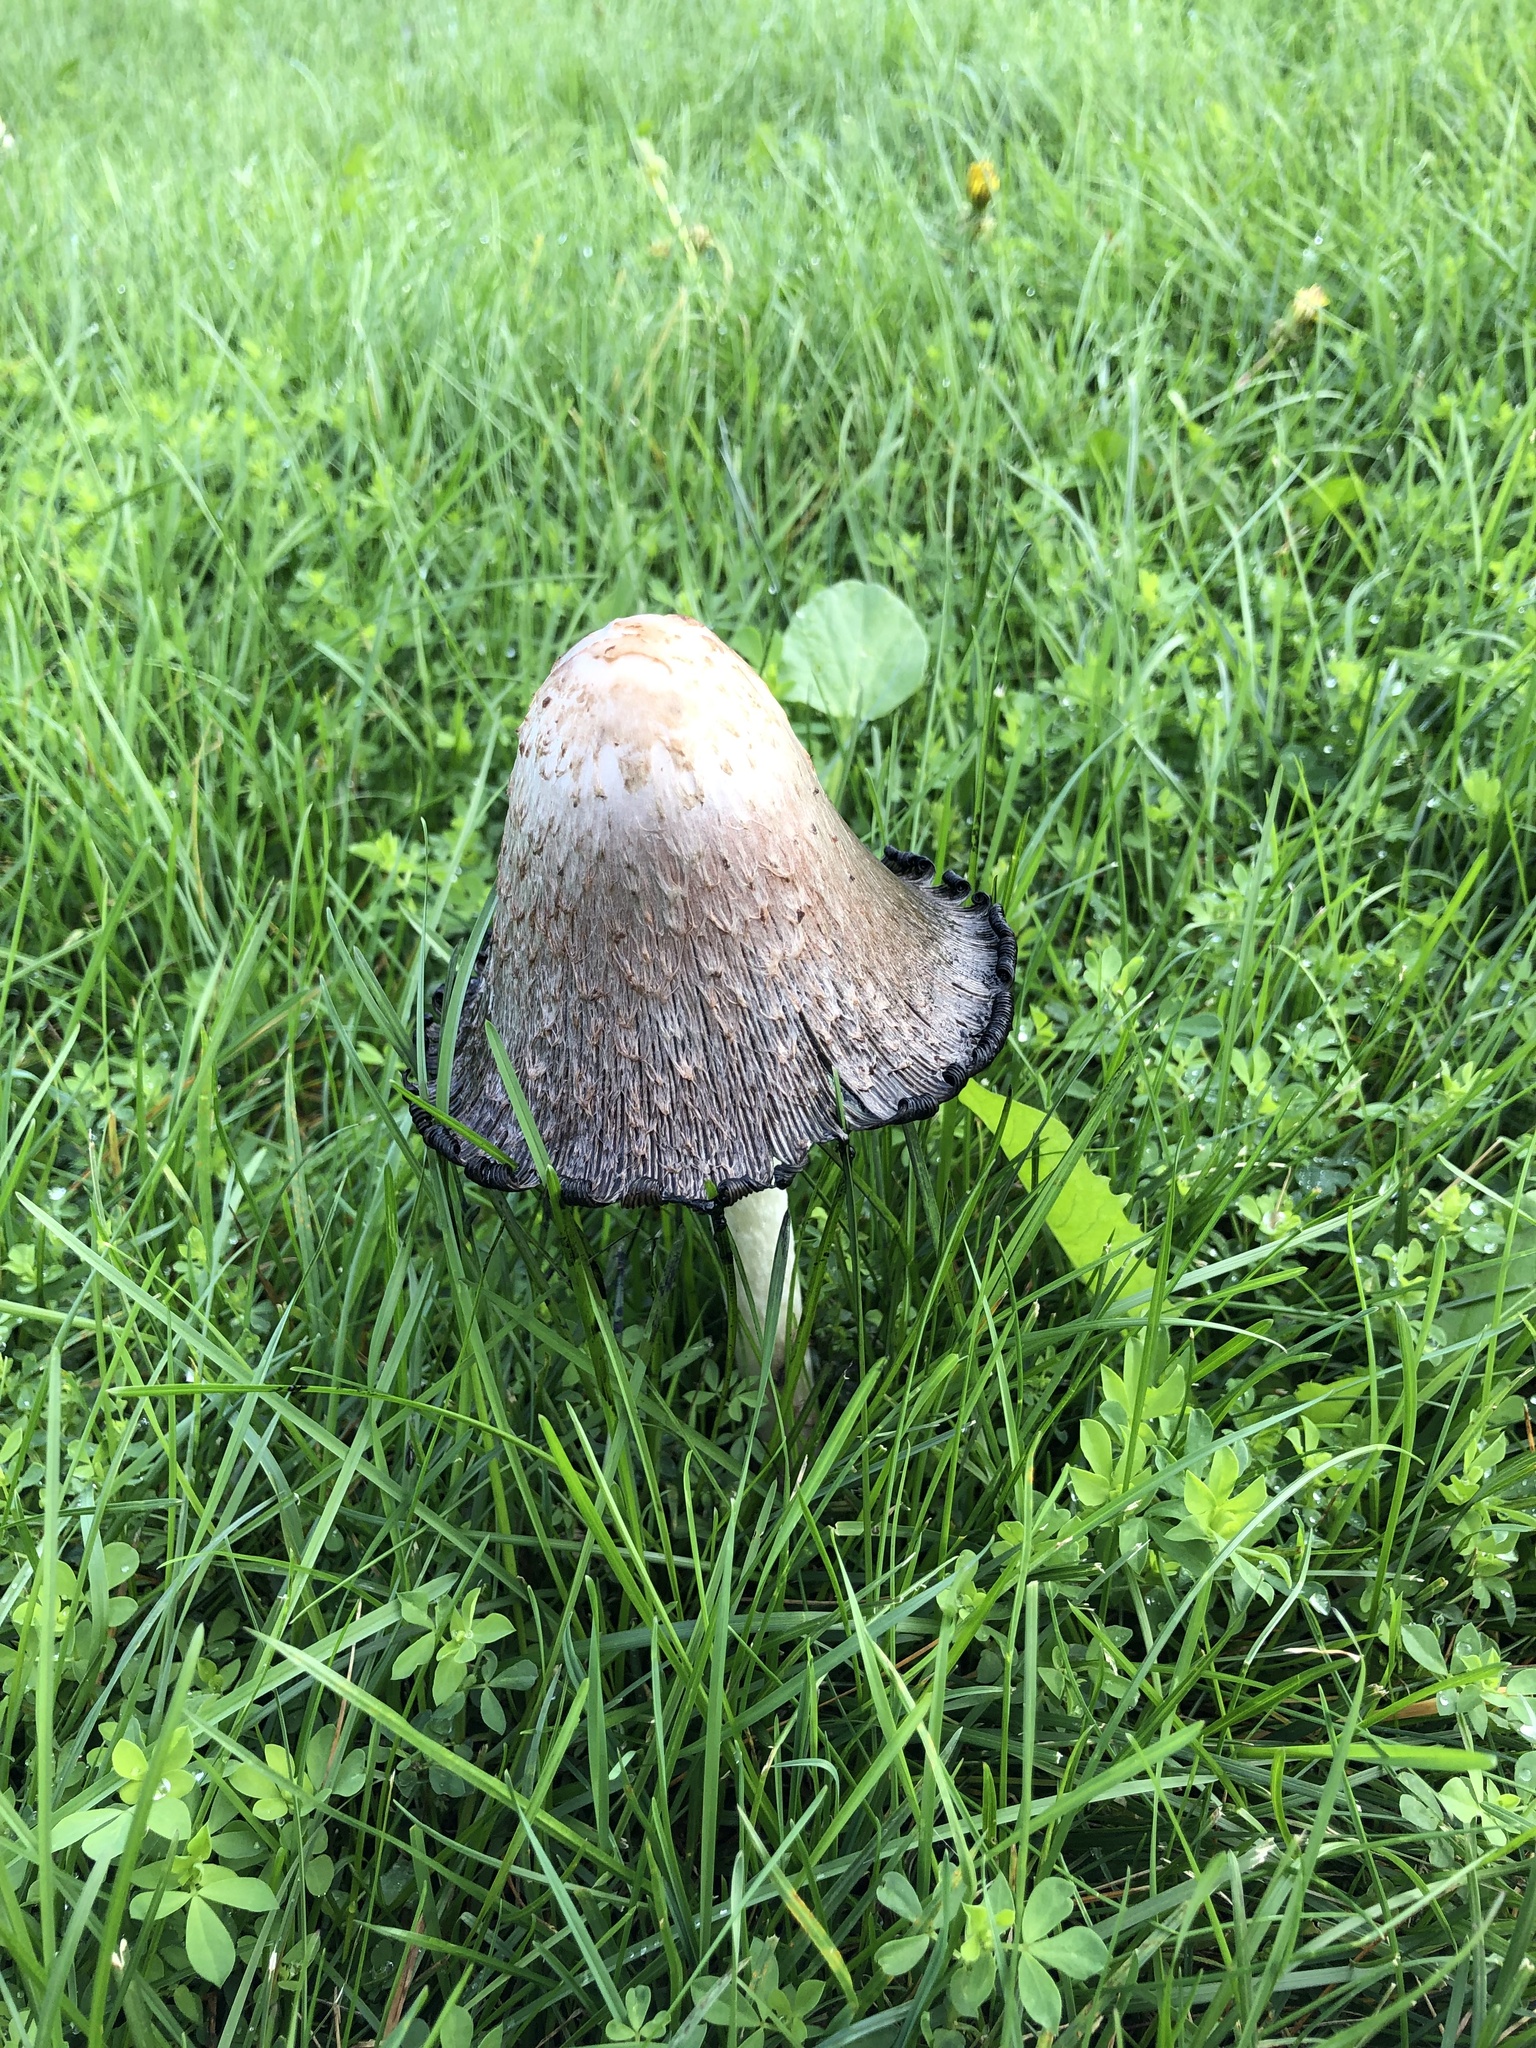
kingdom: Fungi
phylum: Basidiomycota
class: Agaricomycetes
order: Agaricales
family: Agaricaceae
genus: Coprinus
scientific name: Coprinus comatus
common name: Lawyer's wig
